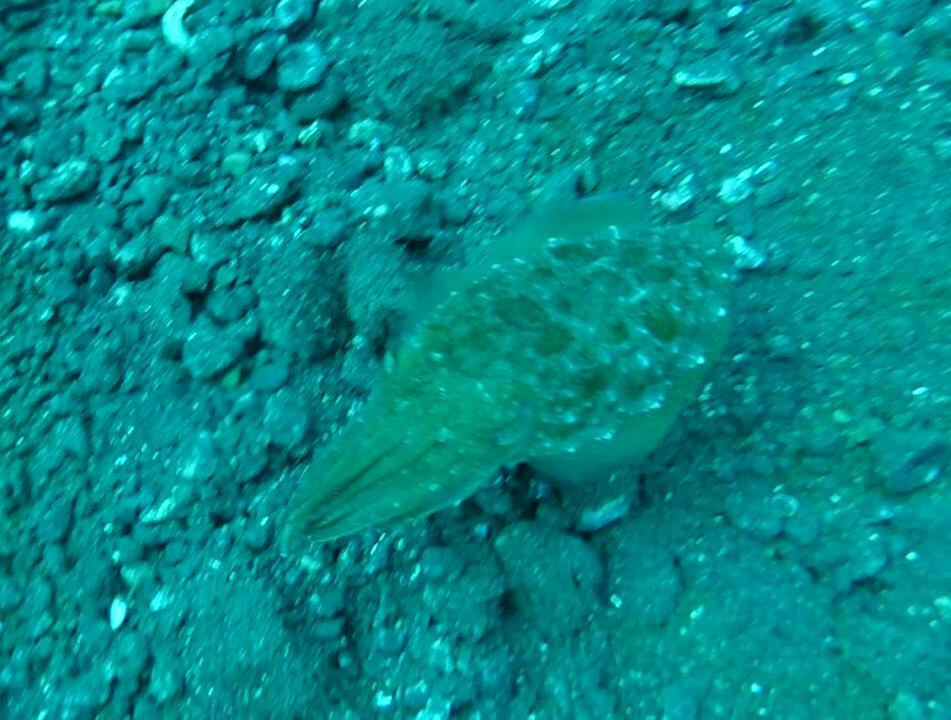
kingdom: Animalia
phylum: Mollusca
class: Cephalopoda
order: Sepiida
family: Sepiidae
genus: Sepia
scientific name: Sepia officinalis
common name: Common cuttlefish
